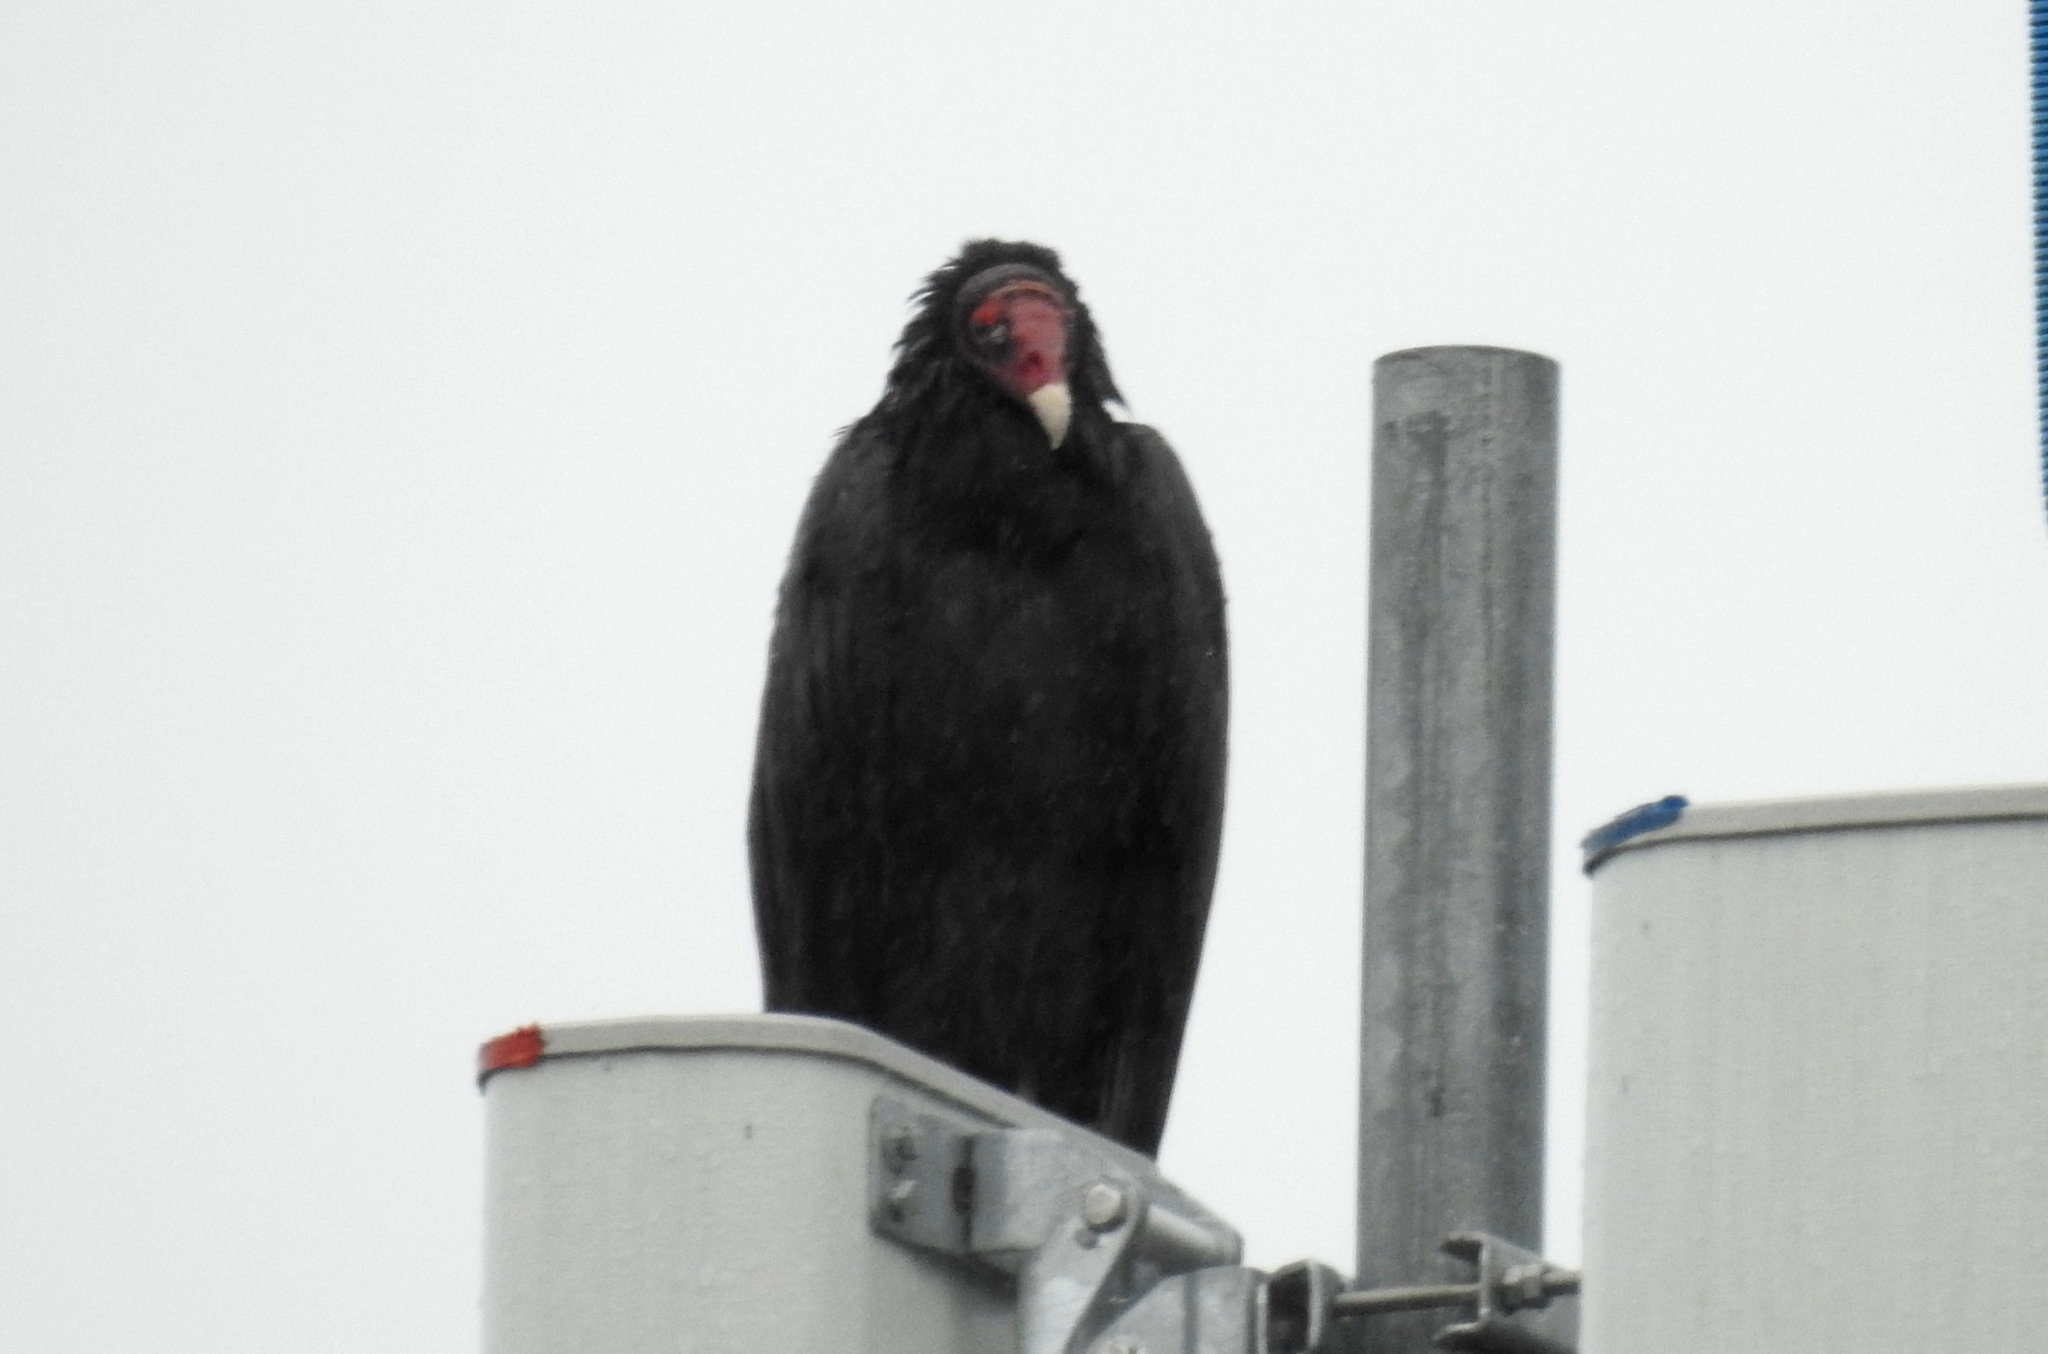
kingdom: Animalia
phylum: Chordata
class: Aves
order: Accipitriformes
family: Cathartidae
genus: Cathartes
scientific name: Cathartes aura
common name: Turkey vulture
